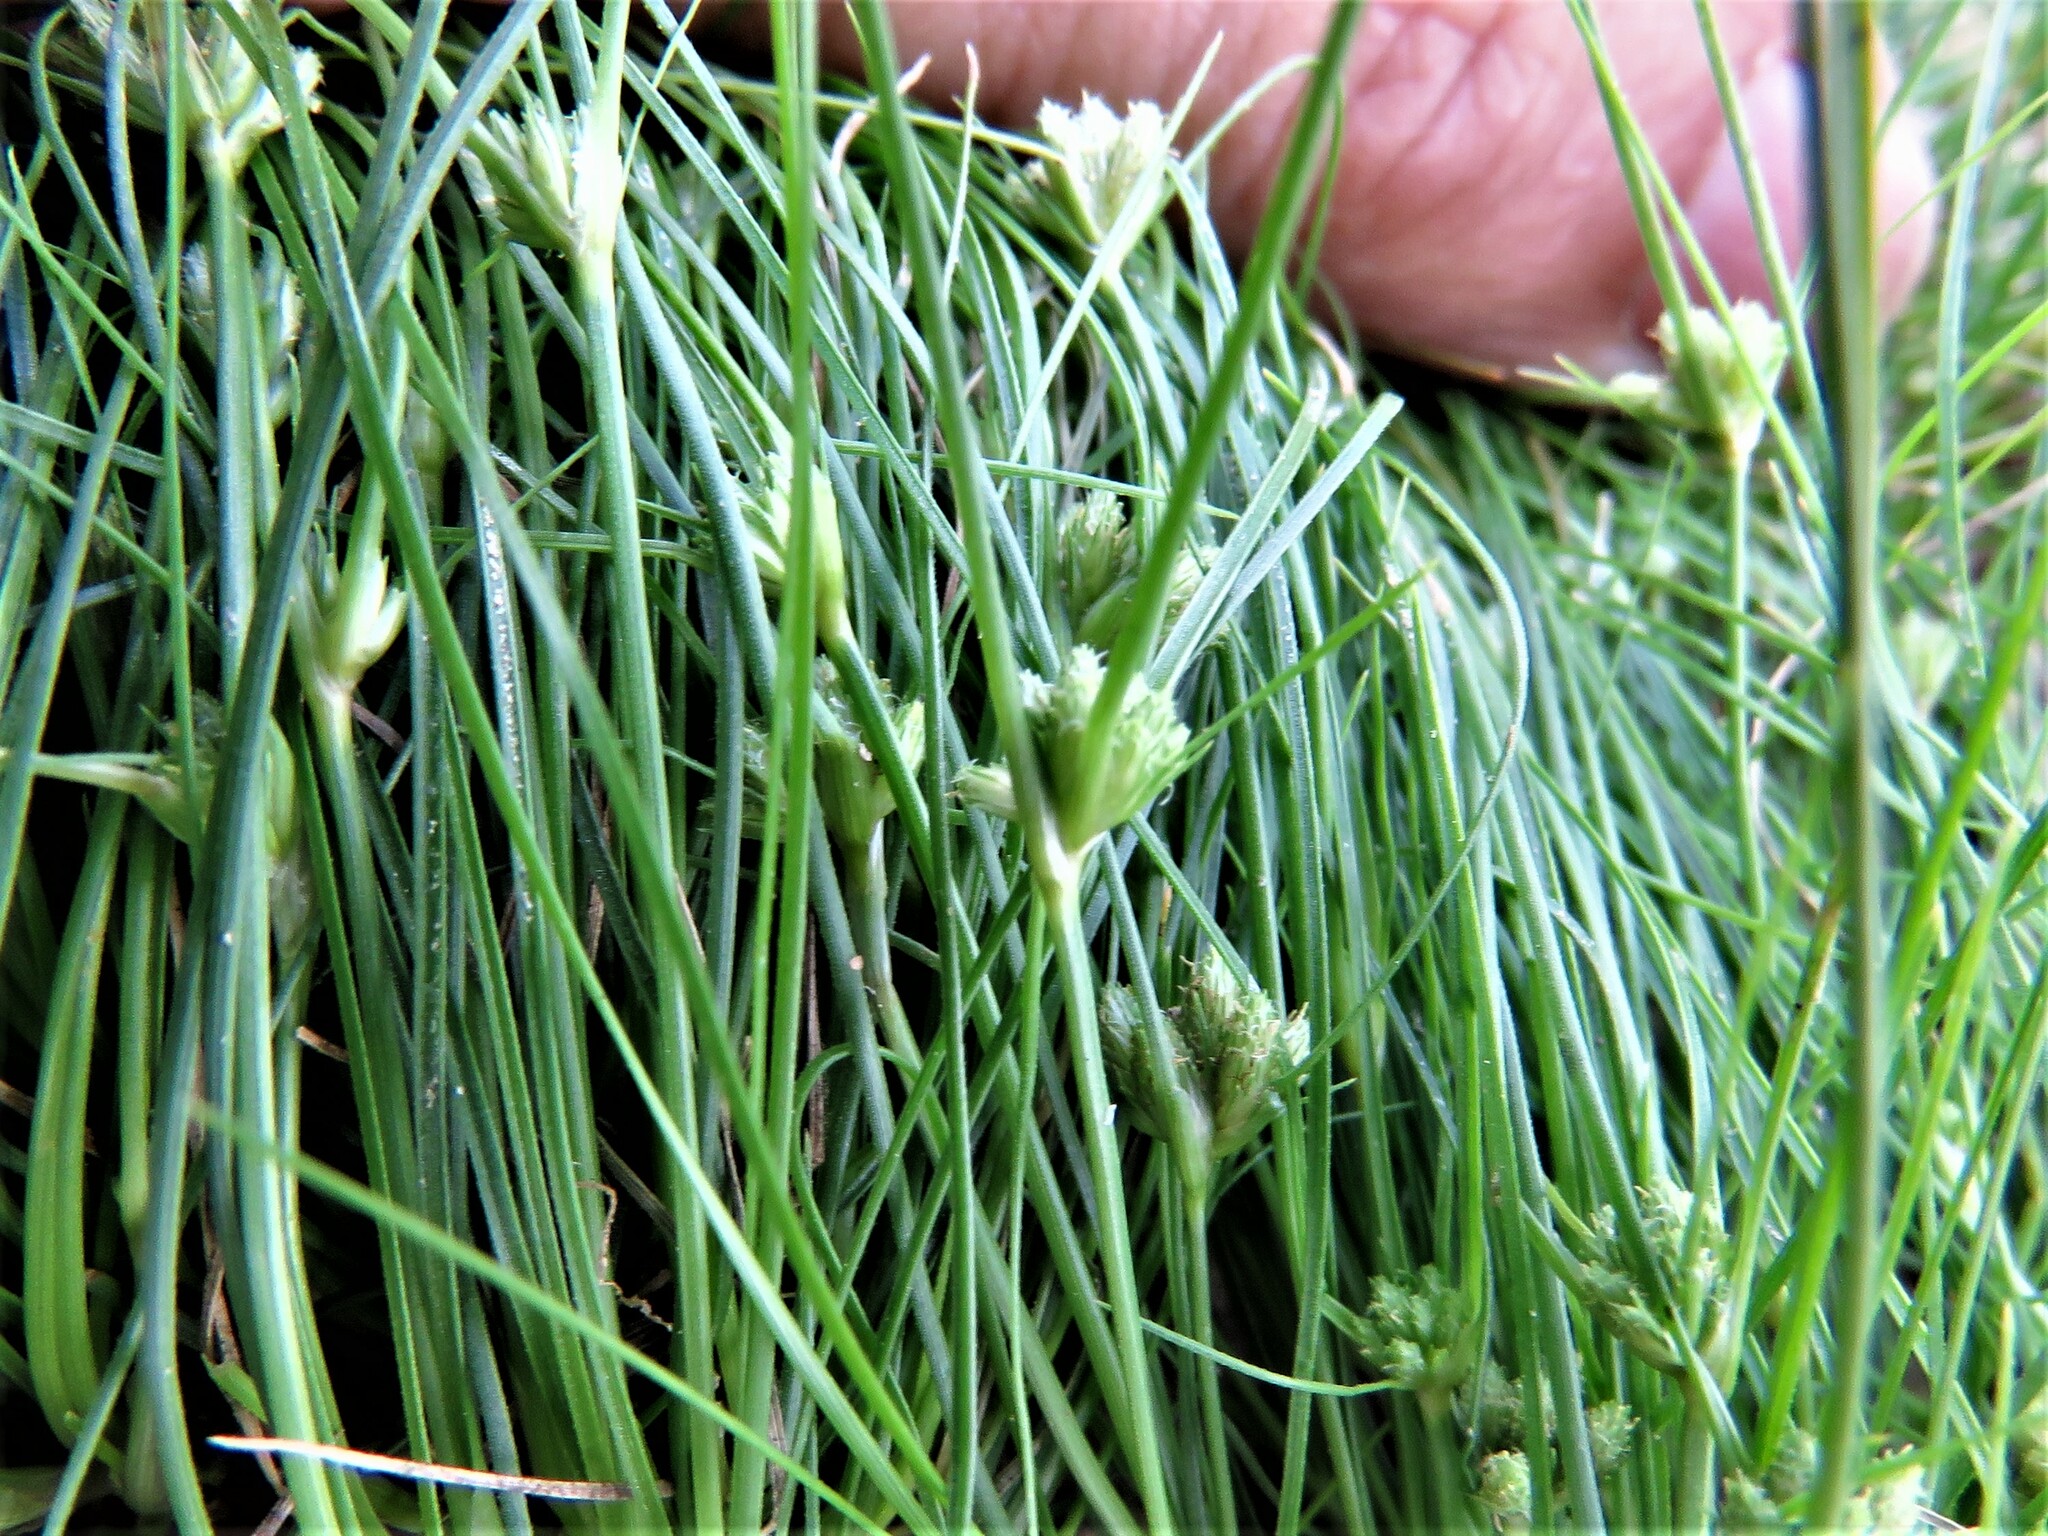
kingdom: Plantae
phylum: Tracheophyta
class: Liliopsida
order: Poales
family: Cyperaceae
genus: Fimbristylis
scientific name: Fimbristylis vahlii
